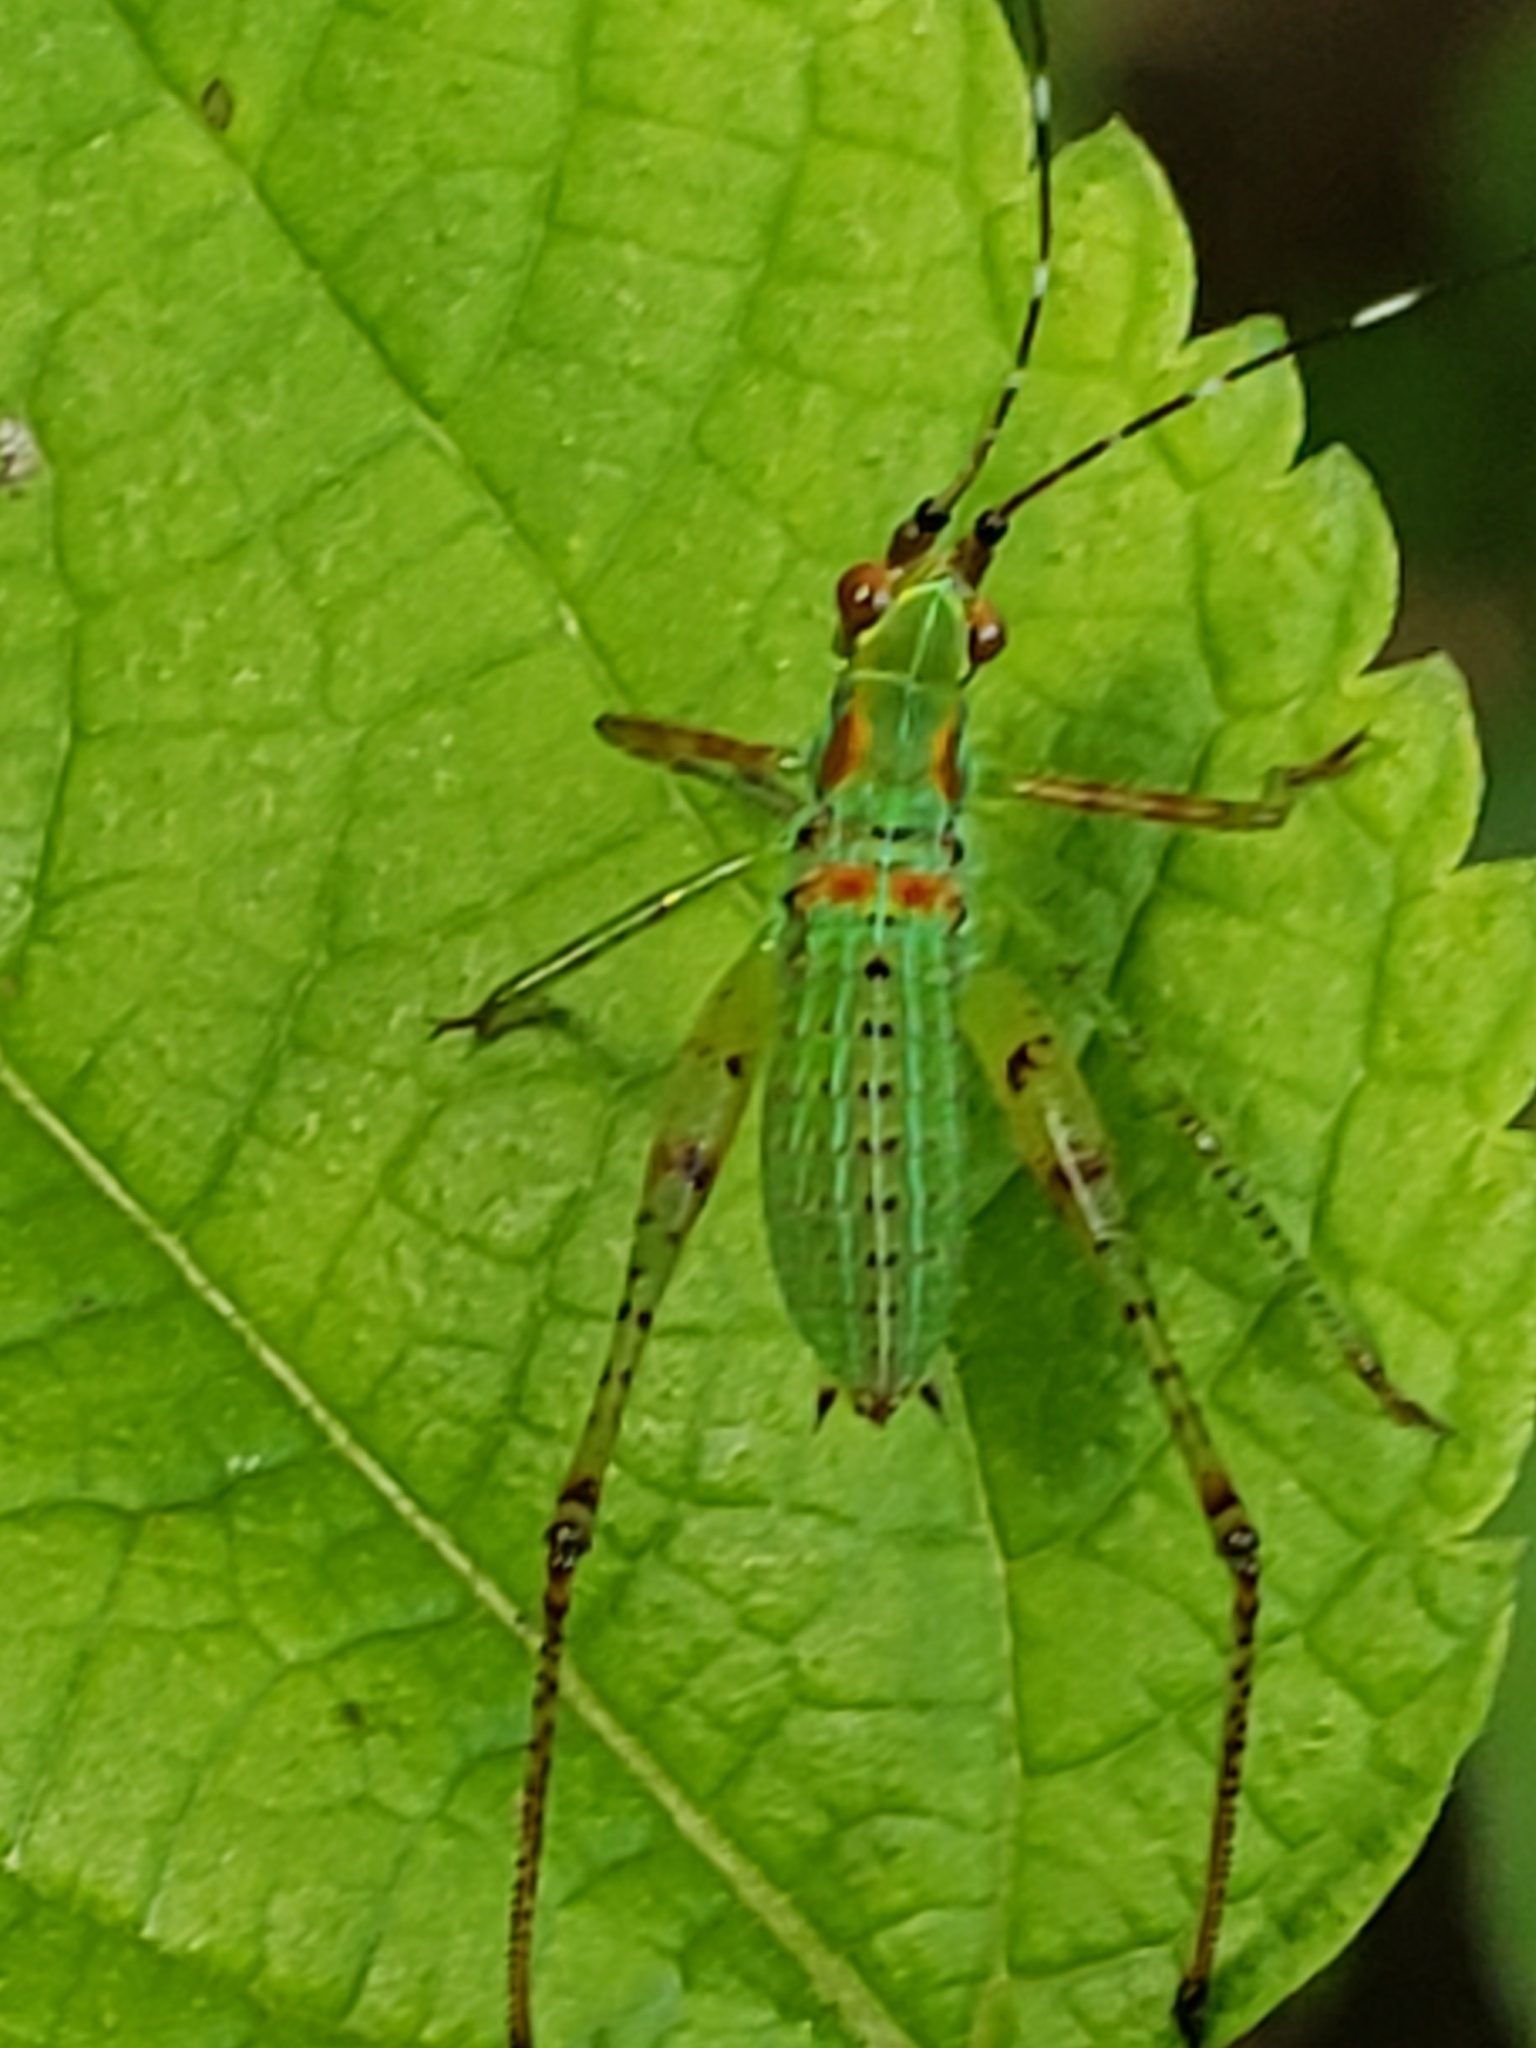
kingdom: Animalia
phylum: Arthropoda
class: Insecta
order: Orthoptera
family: Tettigoniidae
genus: Scudderia
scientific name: Scudderia furcata
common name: Fork-tailed bush katydid
